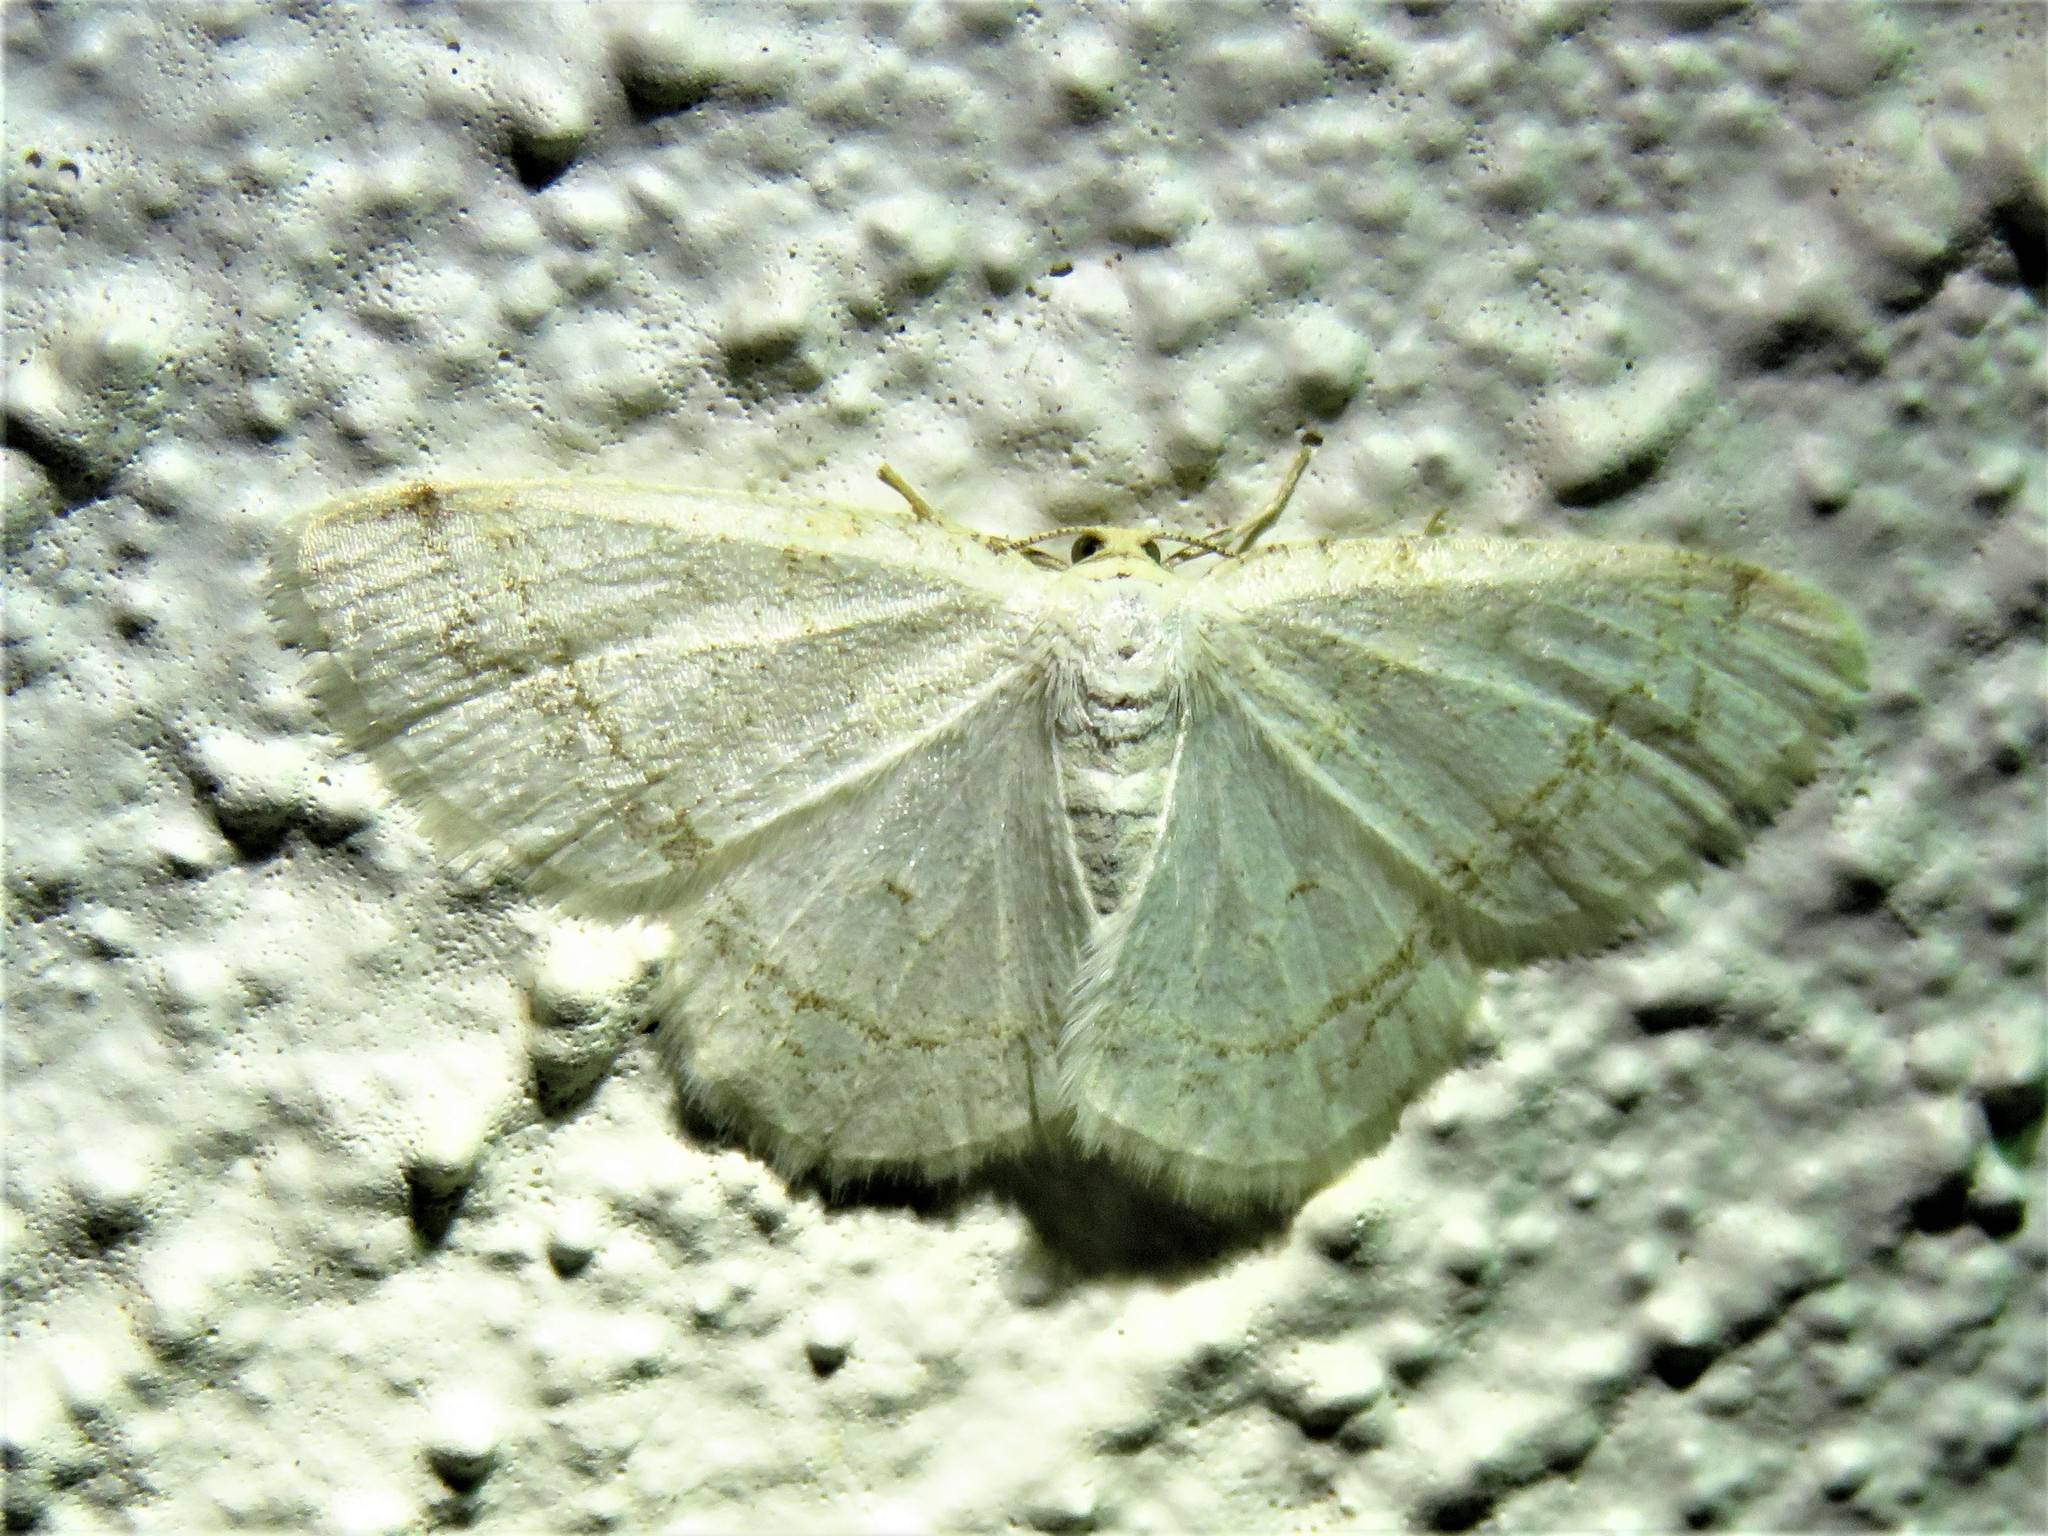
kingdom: Animalia
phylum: Arthropoda
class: Insecta
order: Lepidoptera
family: Geometridae
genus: Protitame
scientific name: Protitame virginalis
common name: Virgin moth
